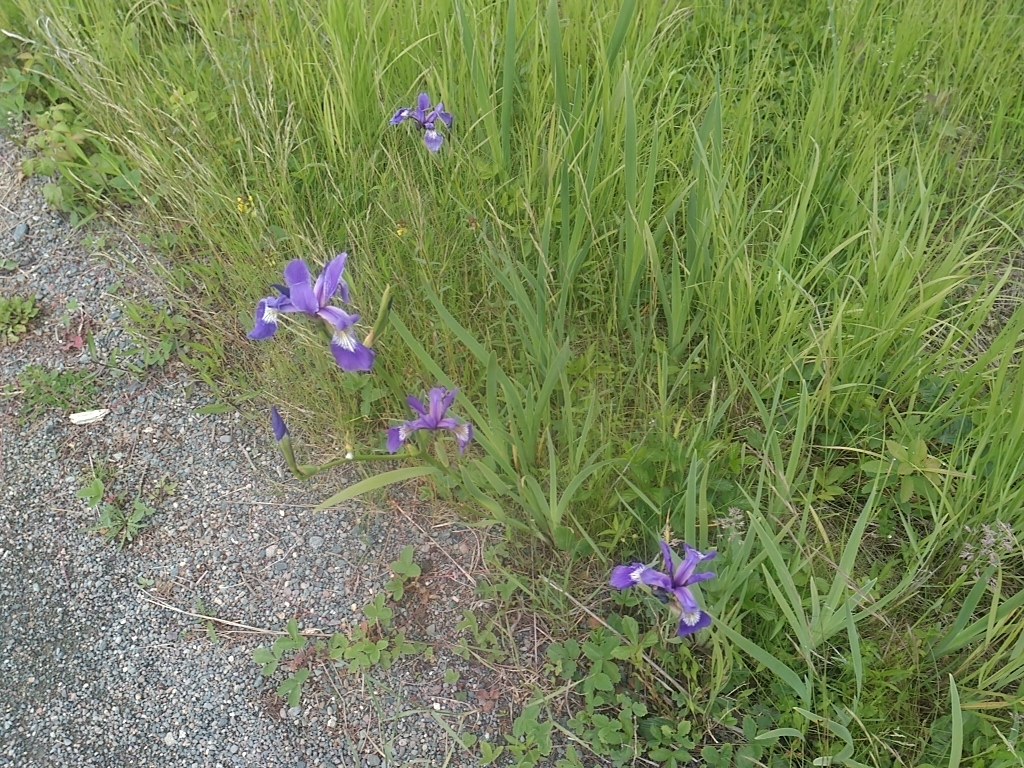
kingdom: Plantae
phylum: Tracheophyta
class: Liliopsida
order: Asparagales
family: Iridaceae
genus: Iris
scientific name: Iris versicolor
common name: Purple iris
